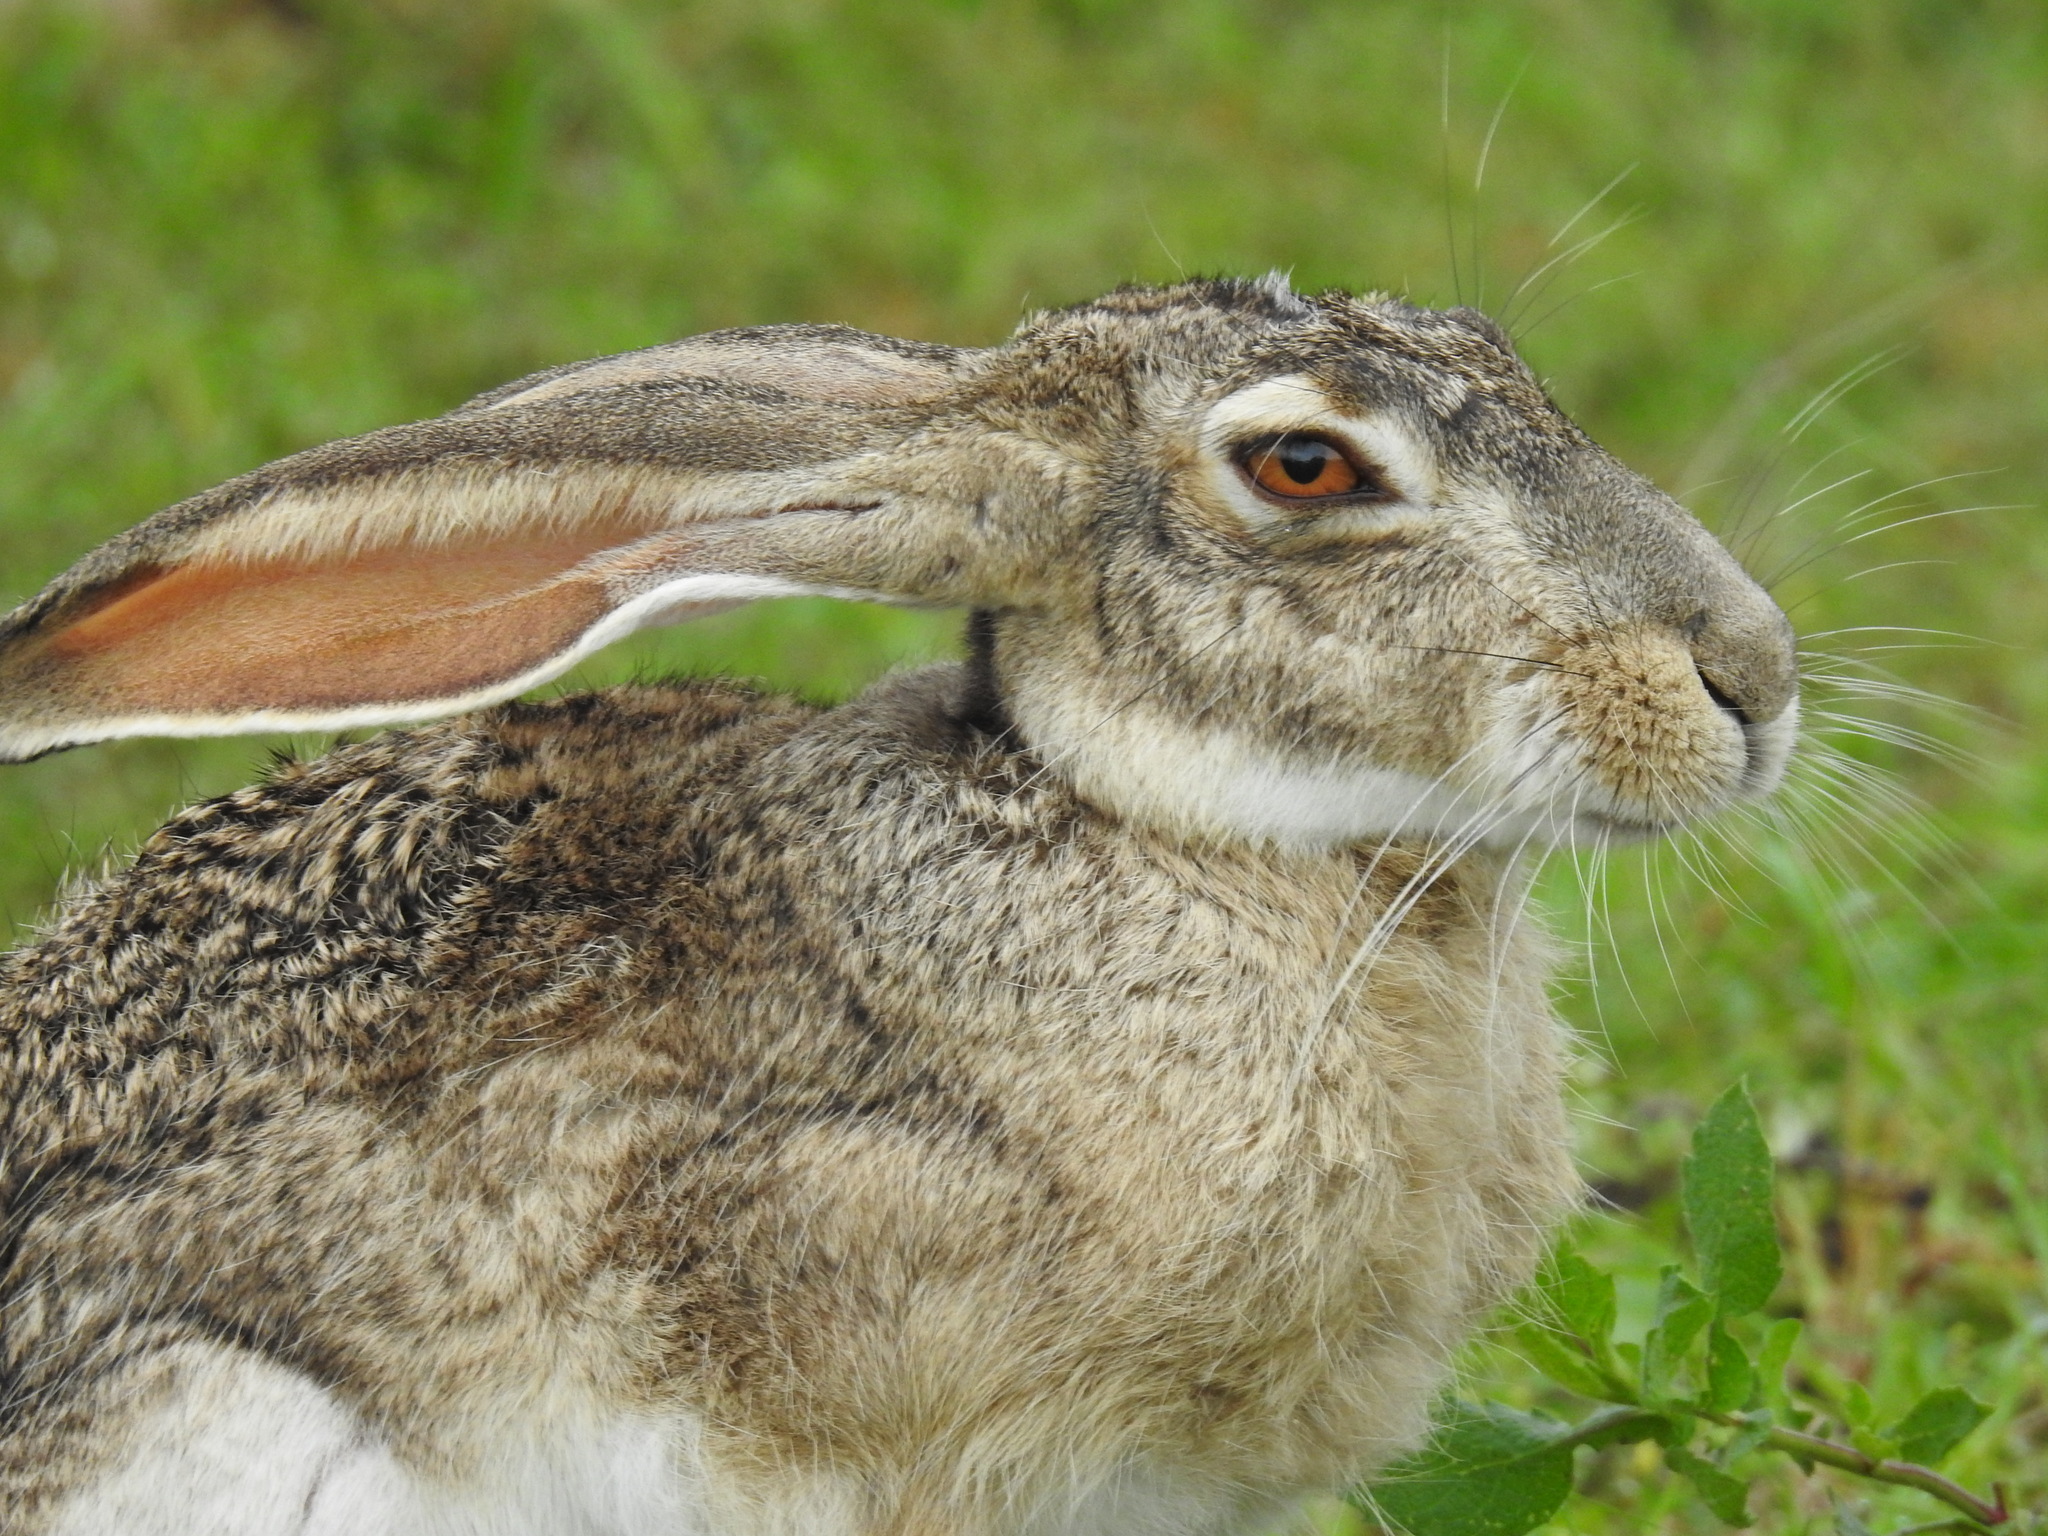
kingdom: Animalia
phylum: Chordata
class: Mammalia
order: Lagomorpha
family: Leporidae
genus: Lepus
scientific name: Lepus californicus
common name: Black-tailed jackrabbit
